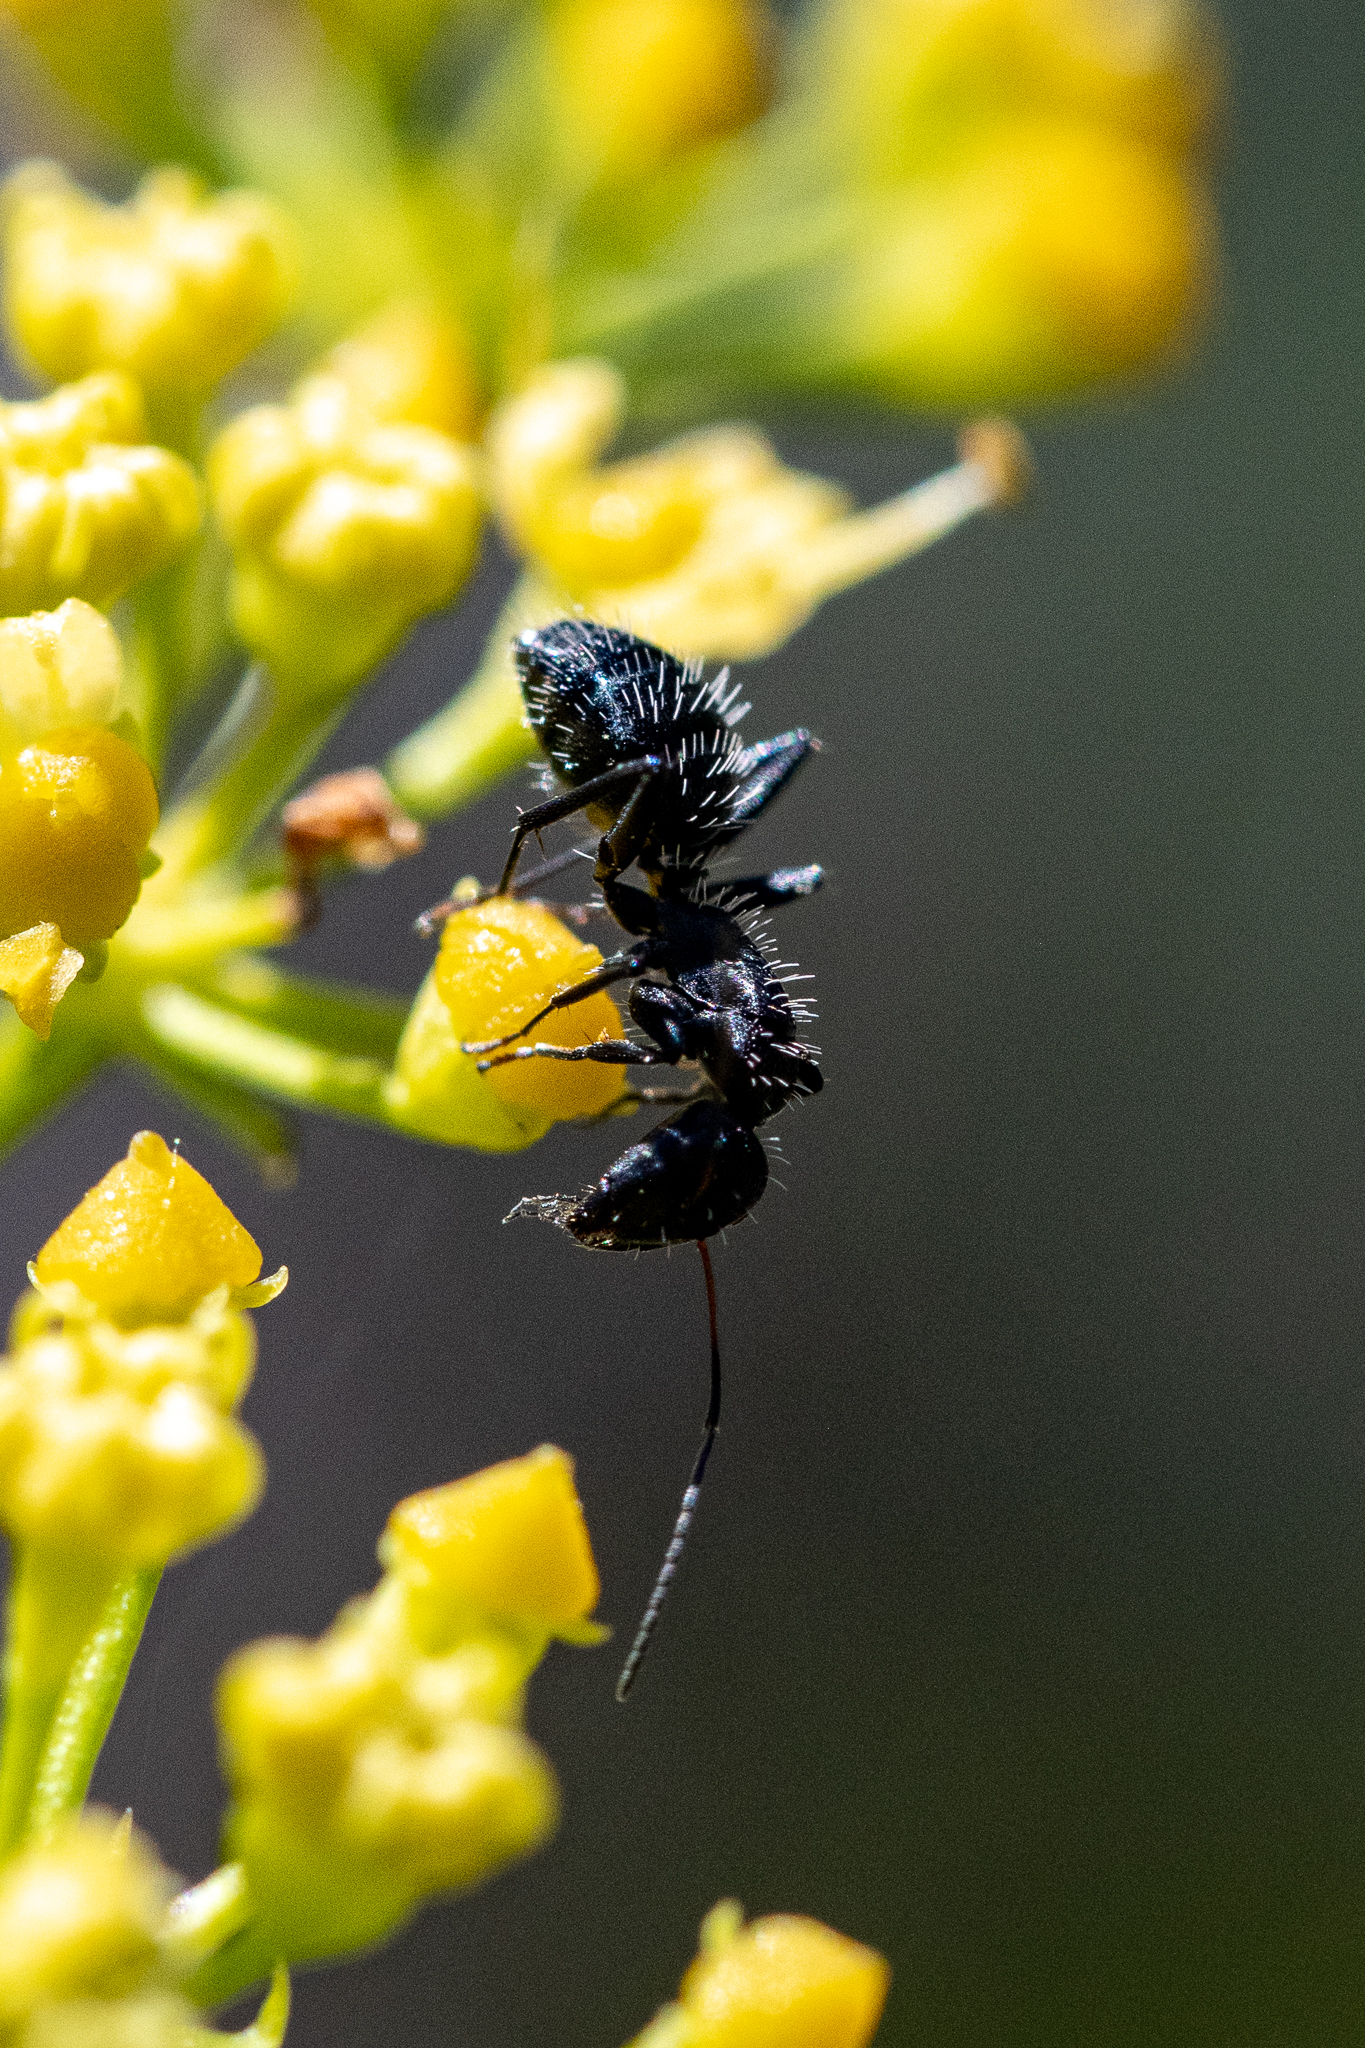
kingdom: Animalia
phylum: Arthropoda
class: Insecta
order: Hymenoptera
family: Formicidae
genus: Camponotus
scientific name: Camponotus niveosetosus
